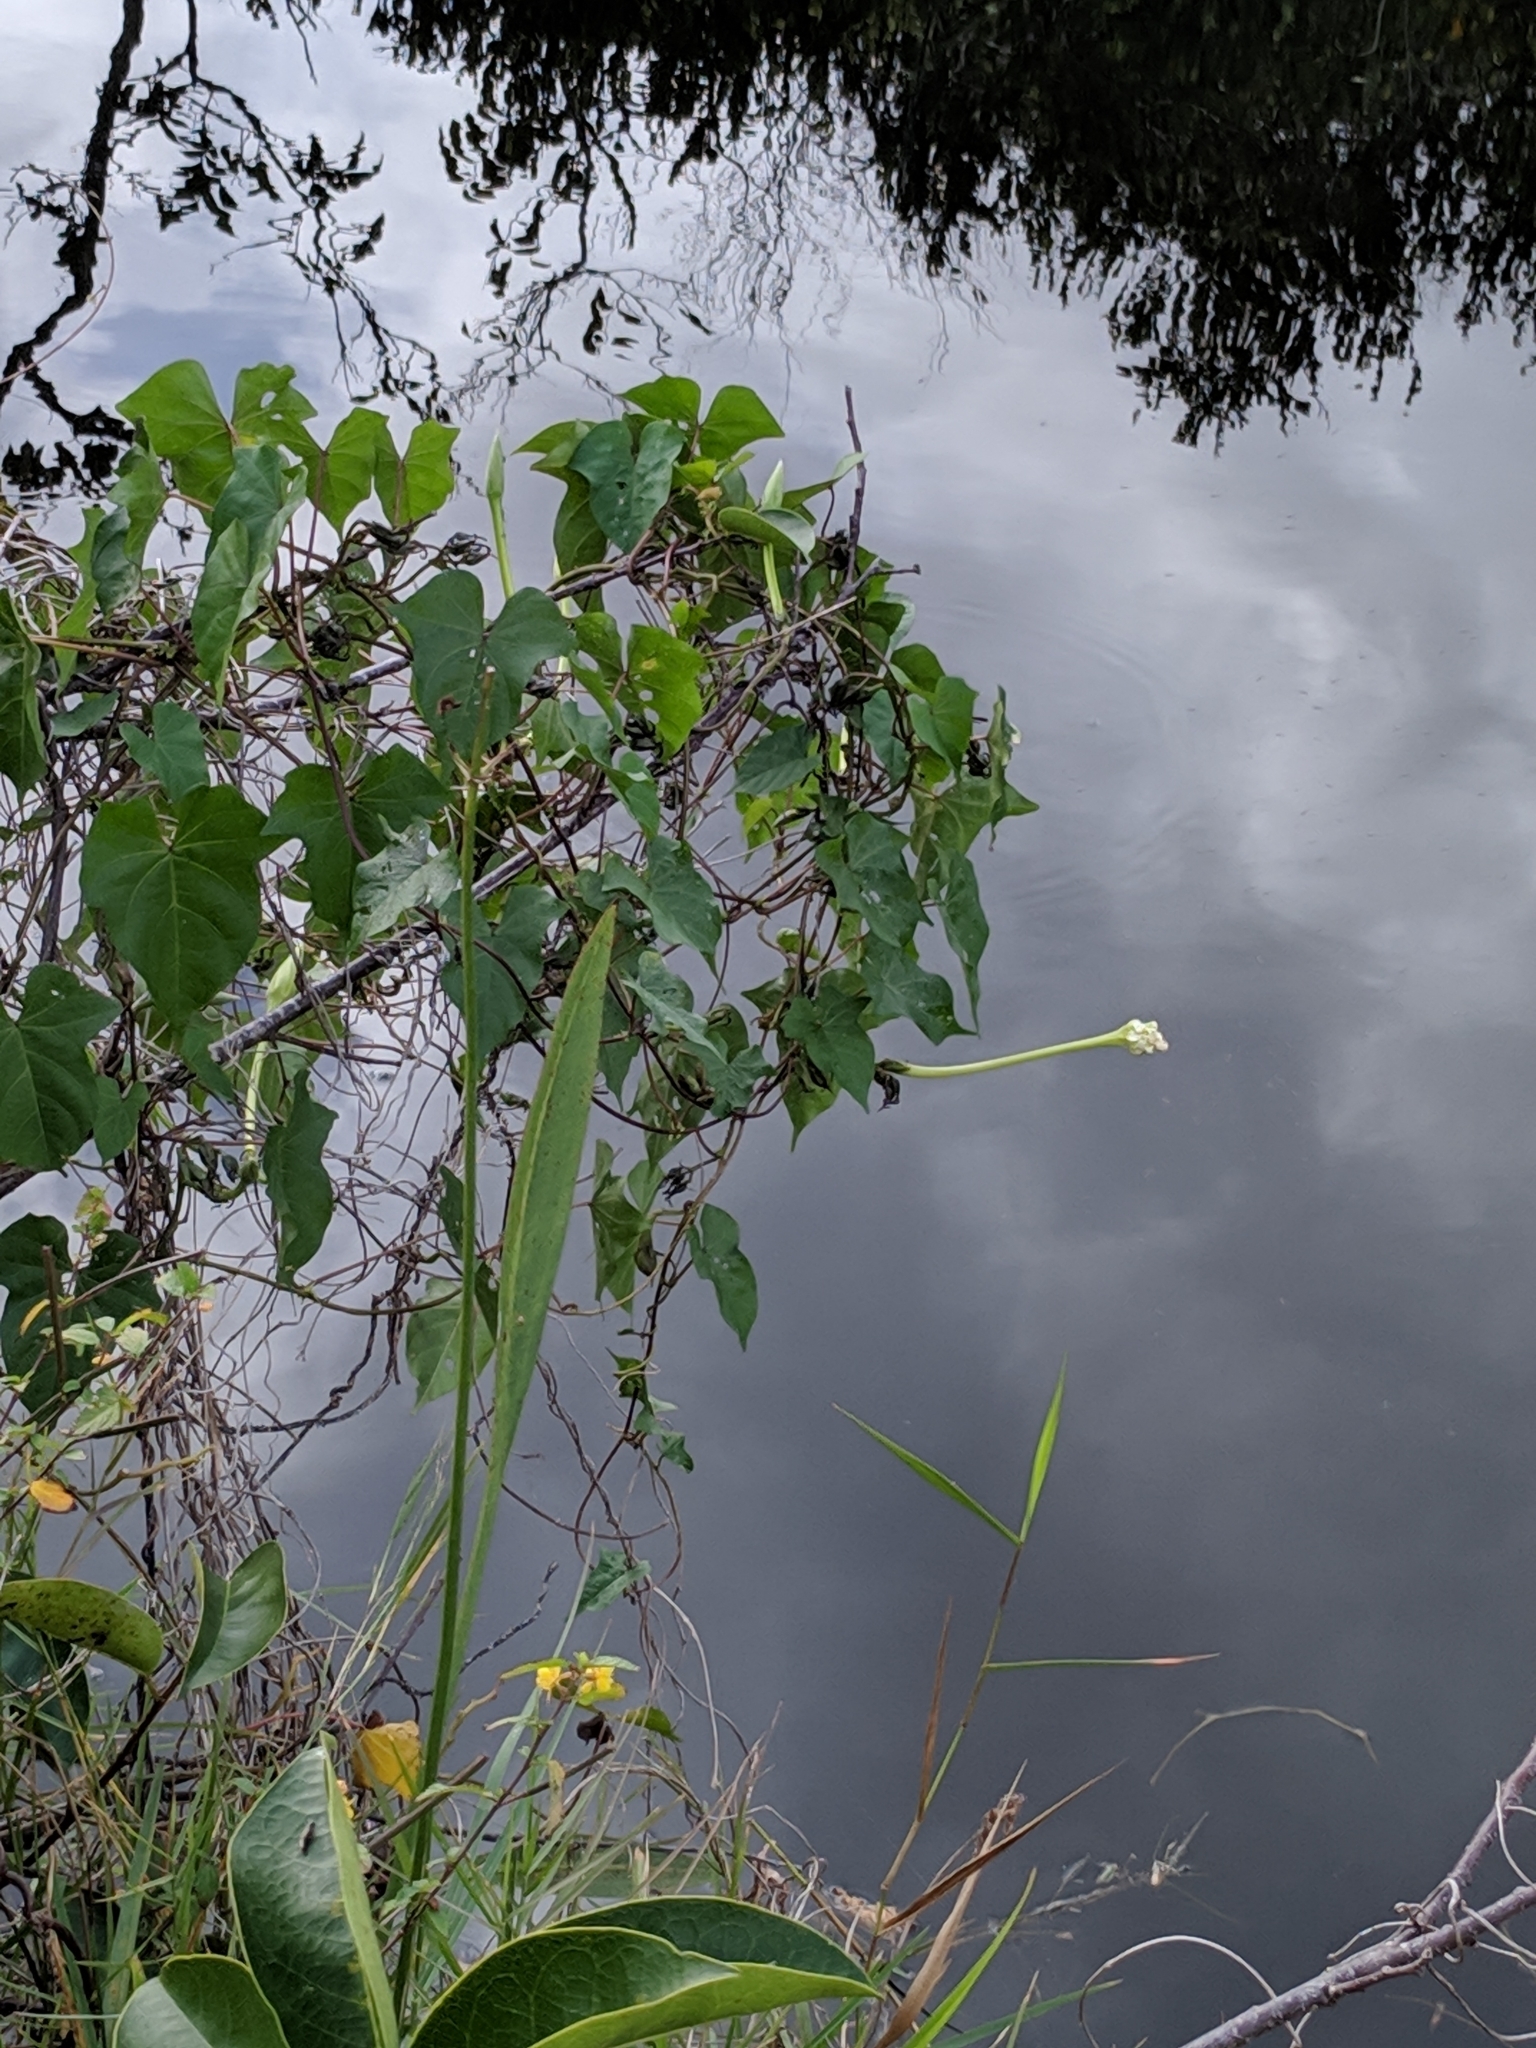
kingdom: Plantae
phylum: Tracheophyta
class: Magnoliopsida
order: Solanales
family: Convolvulaceae
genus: Ipomoea
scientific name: Ipomoea alba
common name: Moonflower
